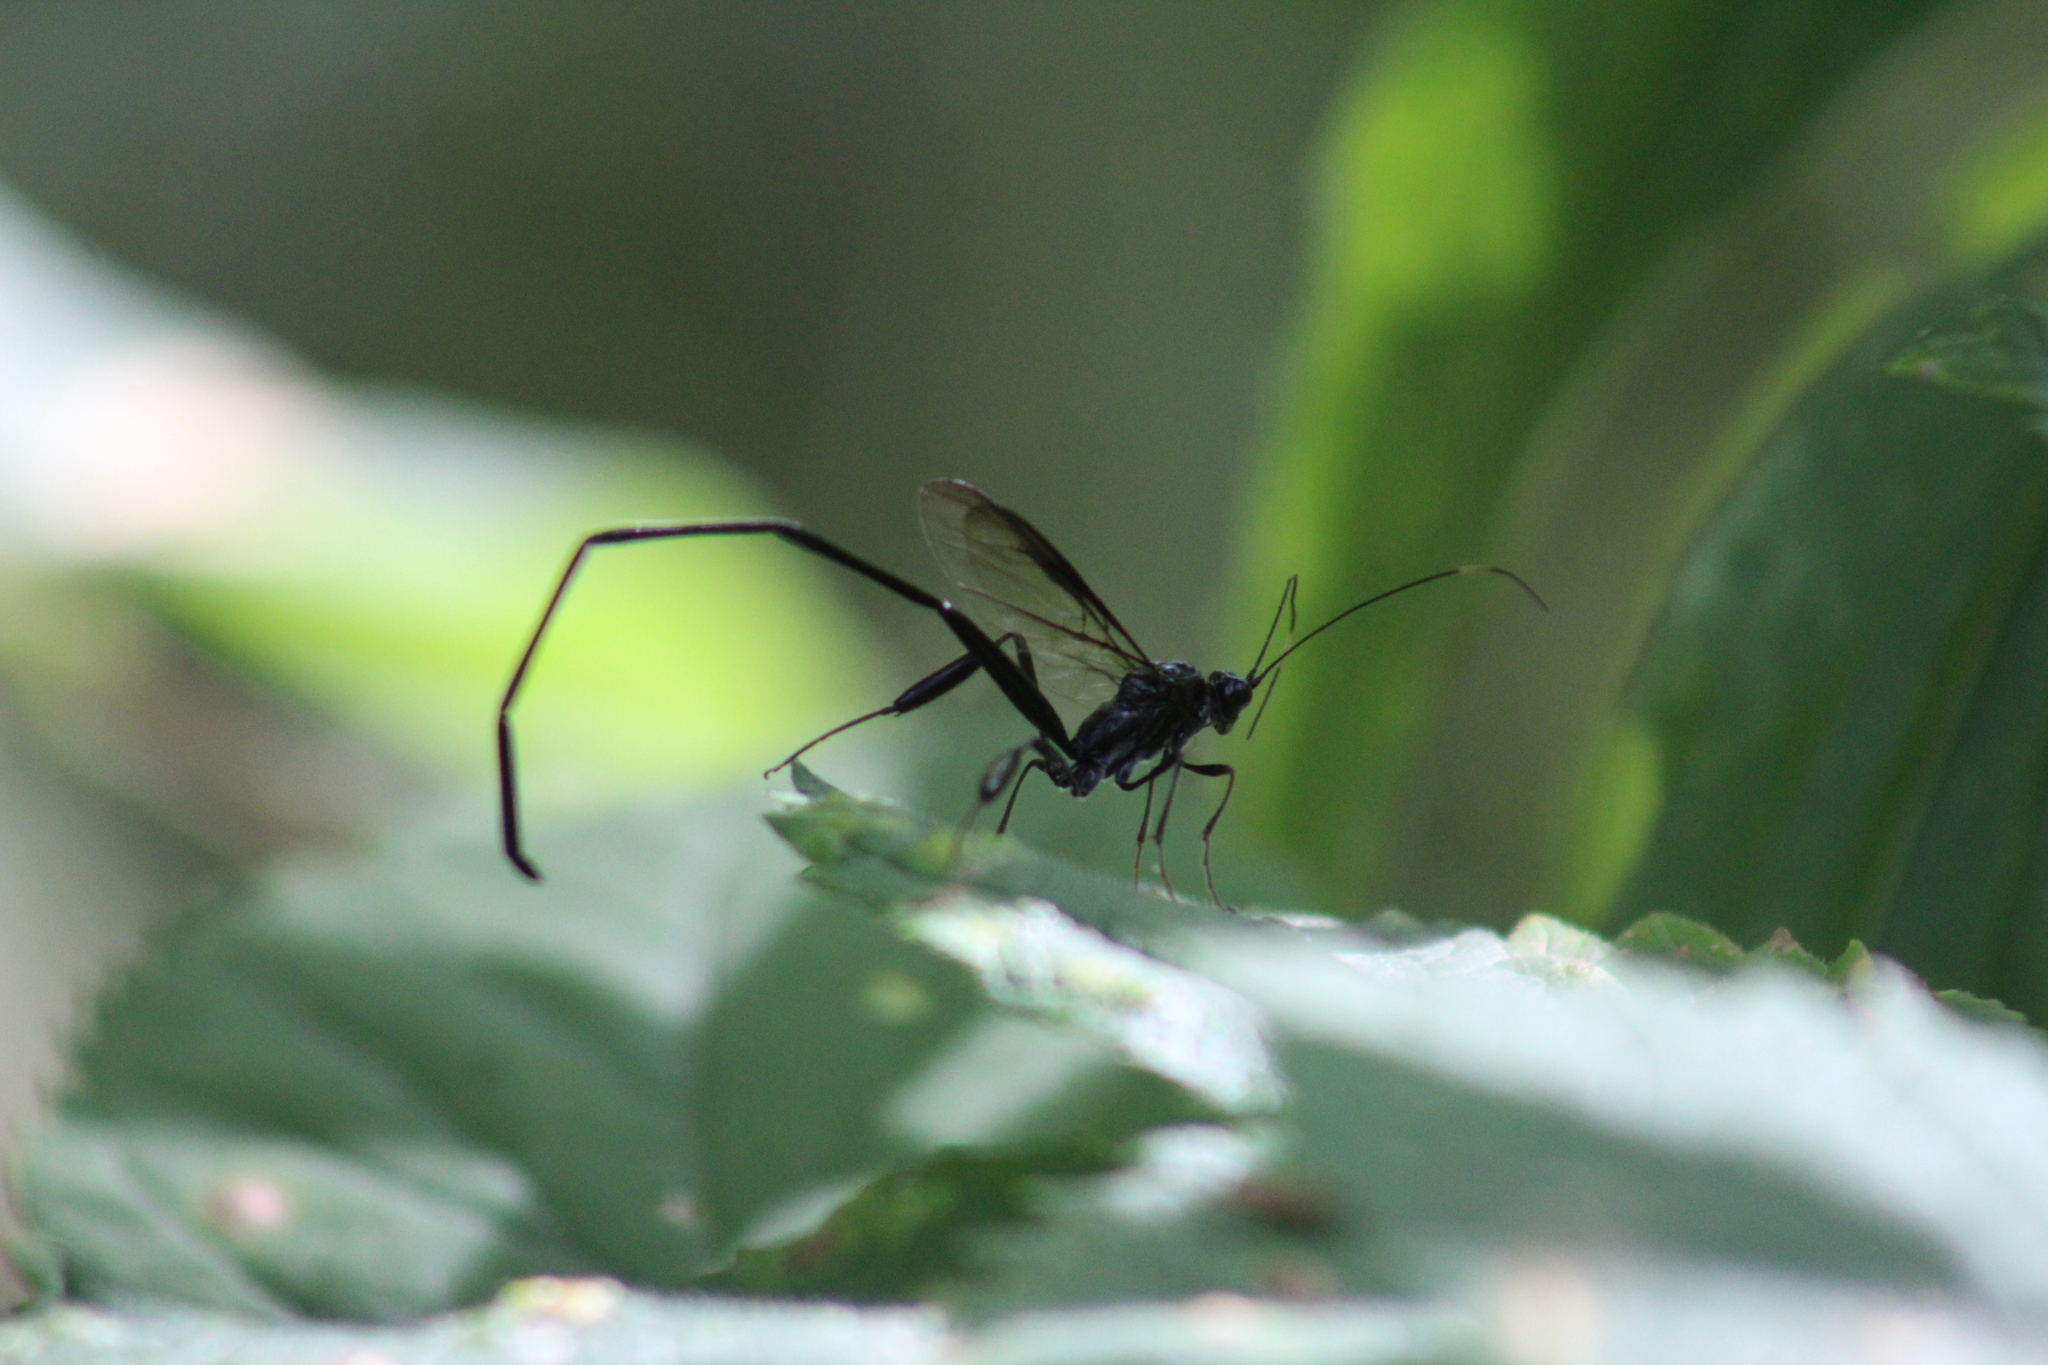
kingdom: Animalia
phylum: Arthropoda
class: Insecta
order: Hymenoptera
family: Pelecinidae
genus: Pelecinus
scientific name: Pelecinus polyturator
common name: American pelecinid wasp
